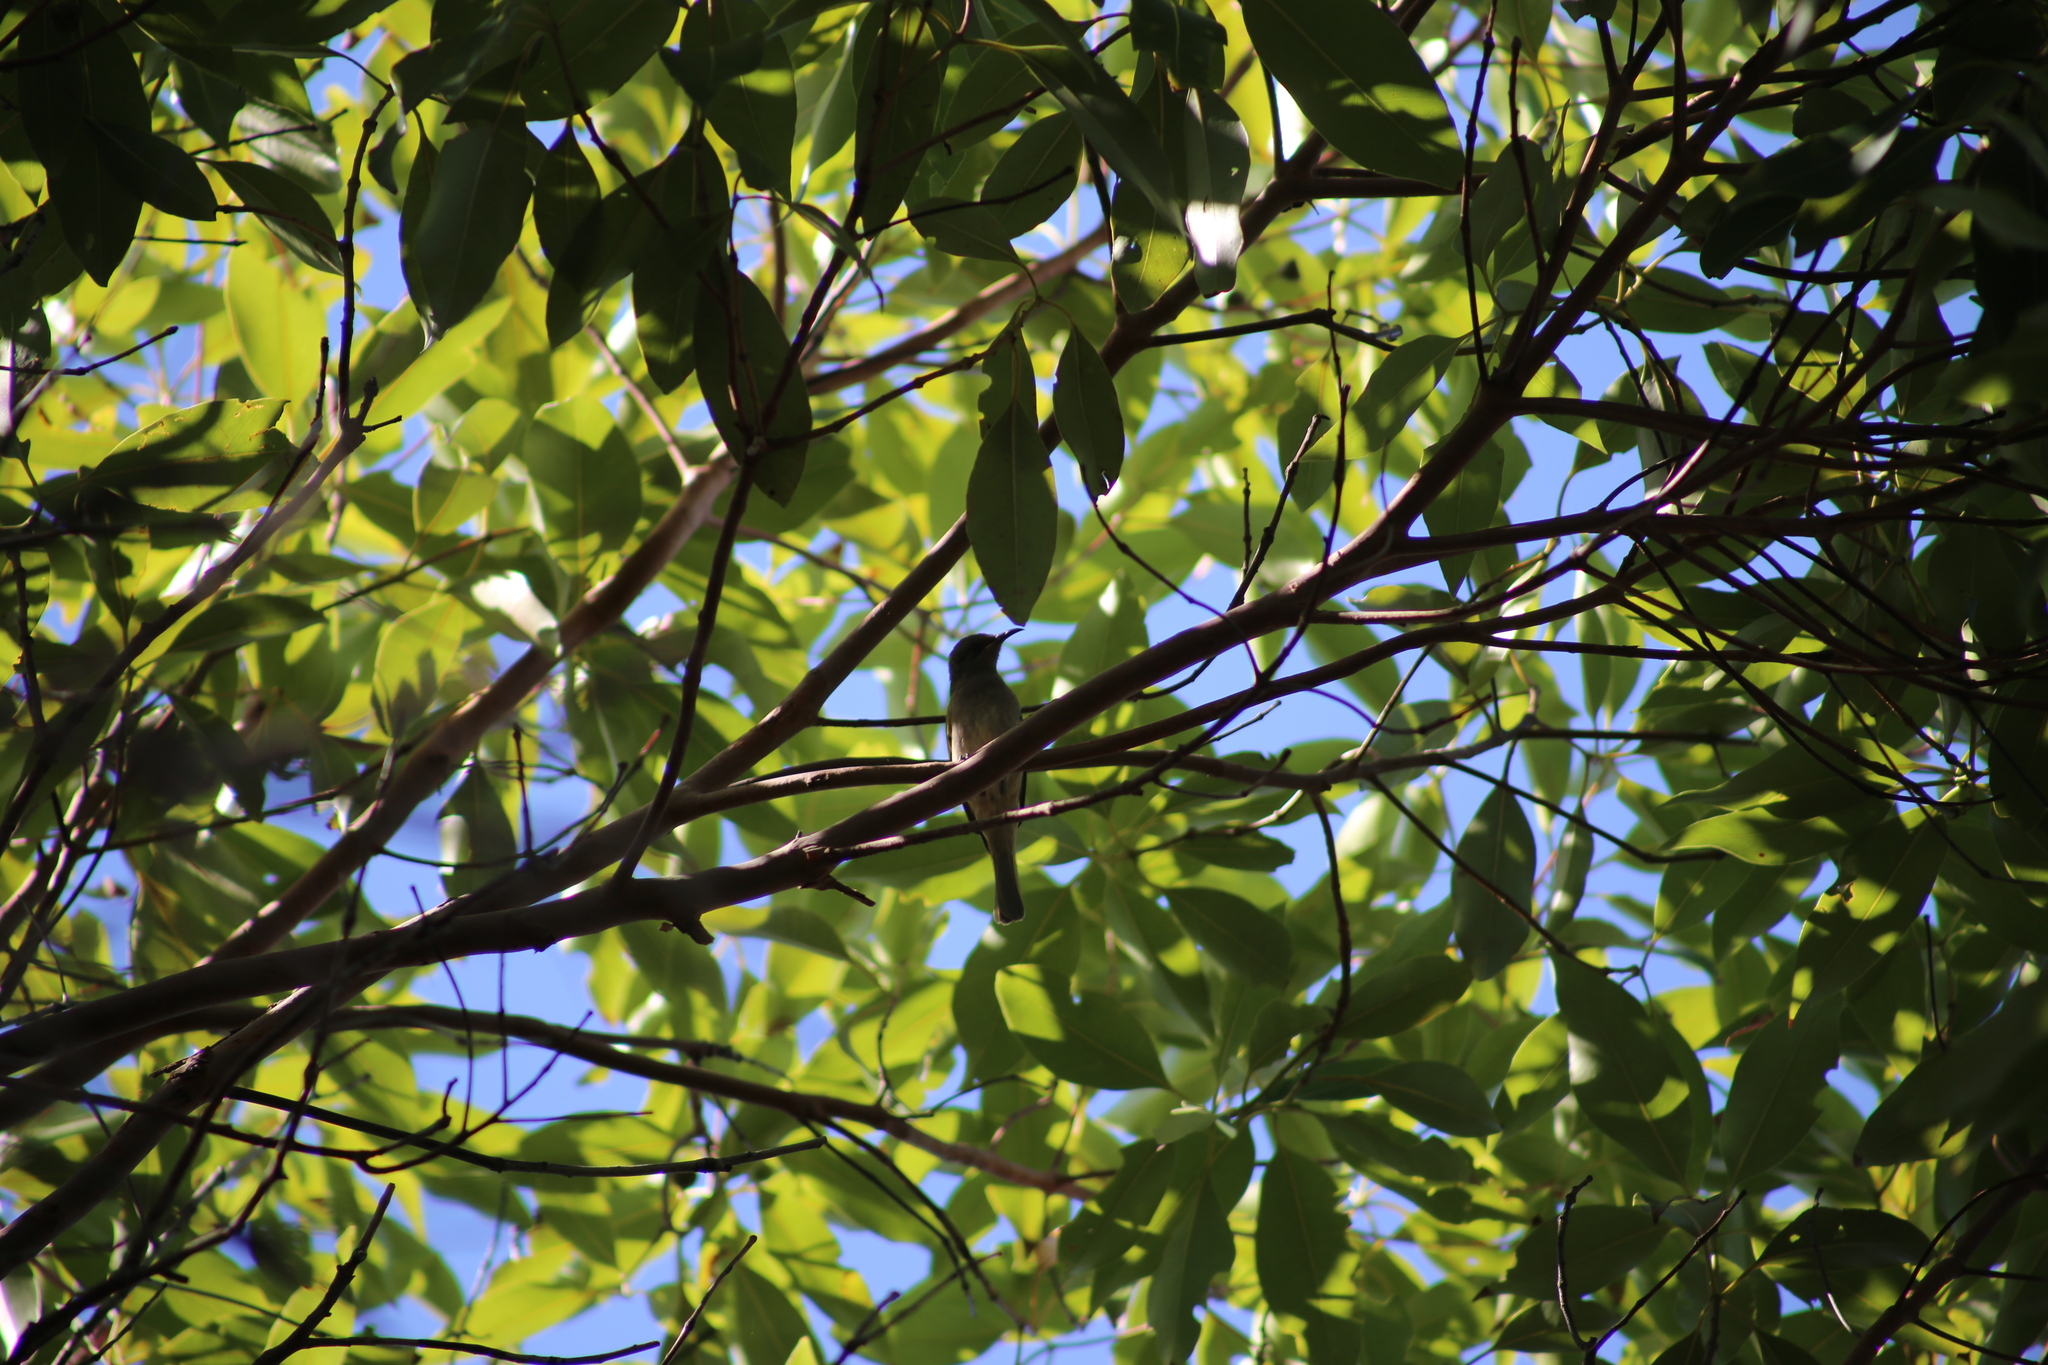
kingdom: Animalia
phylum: Chordata
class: Aves
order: Passeriformes
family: Meliphagidae
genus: Lichmera
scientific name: Lichmera indistincta
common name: Brown honeyeater
